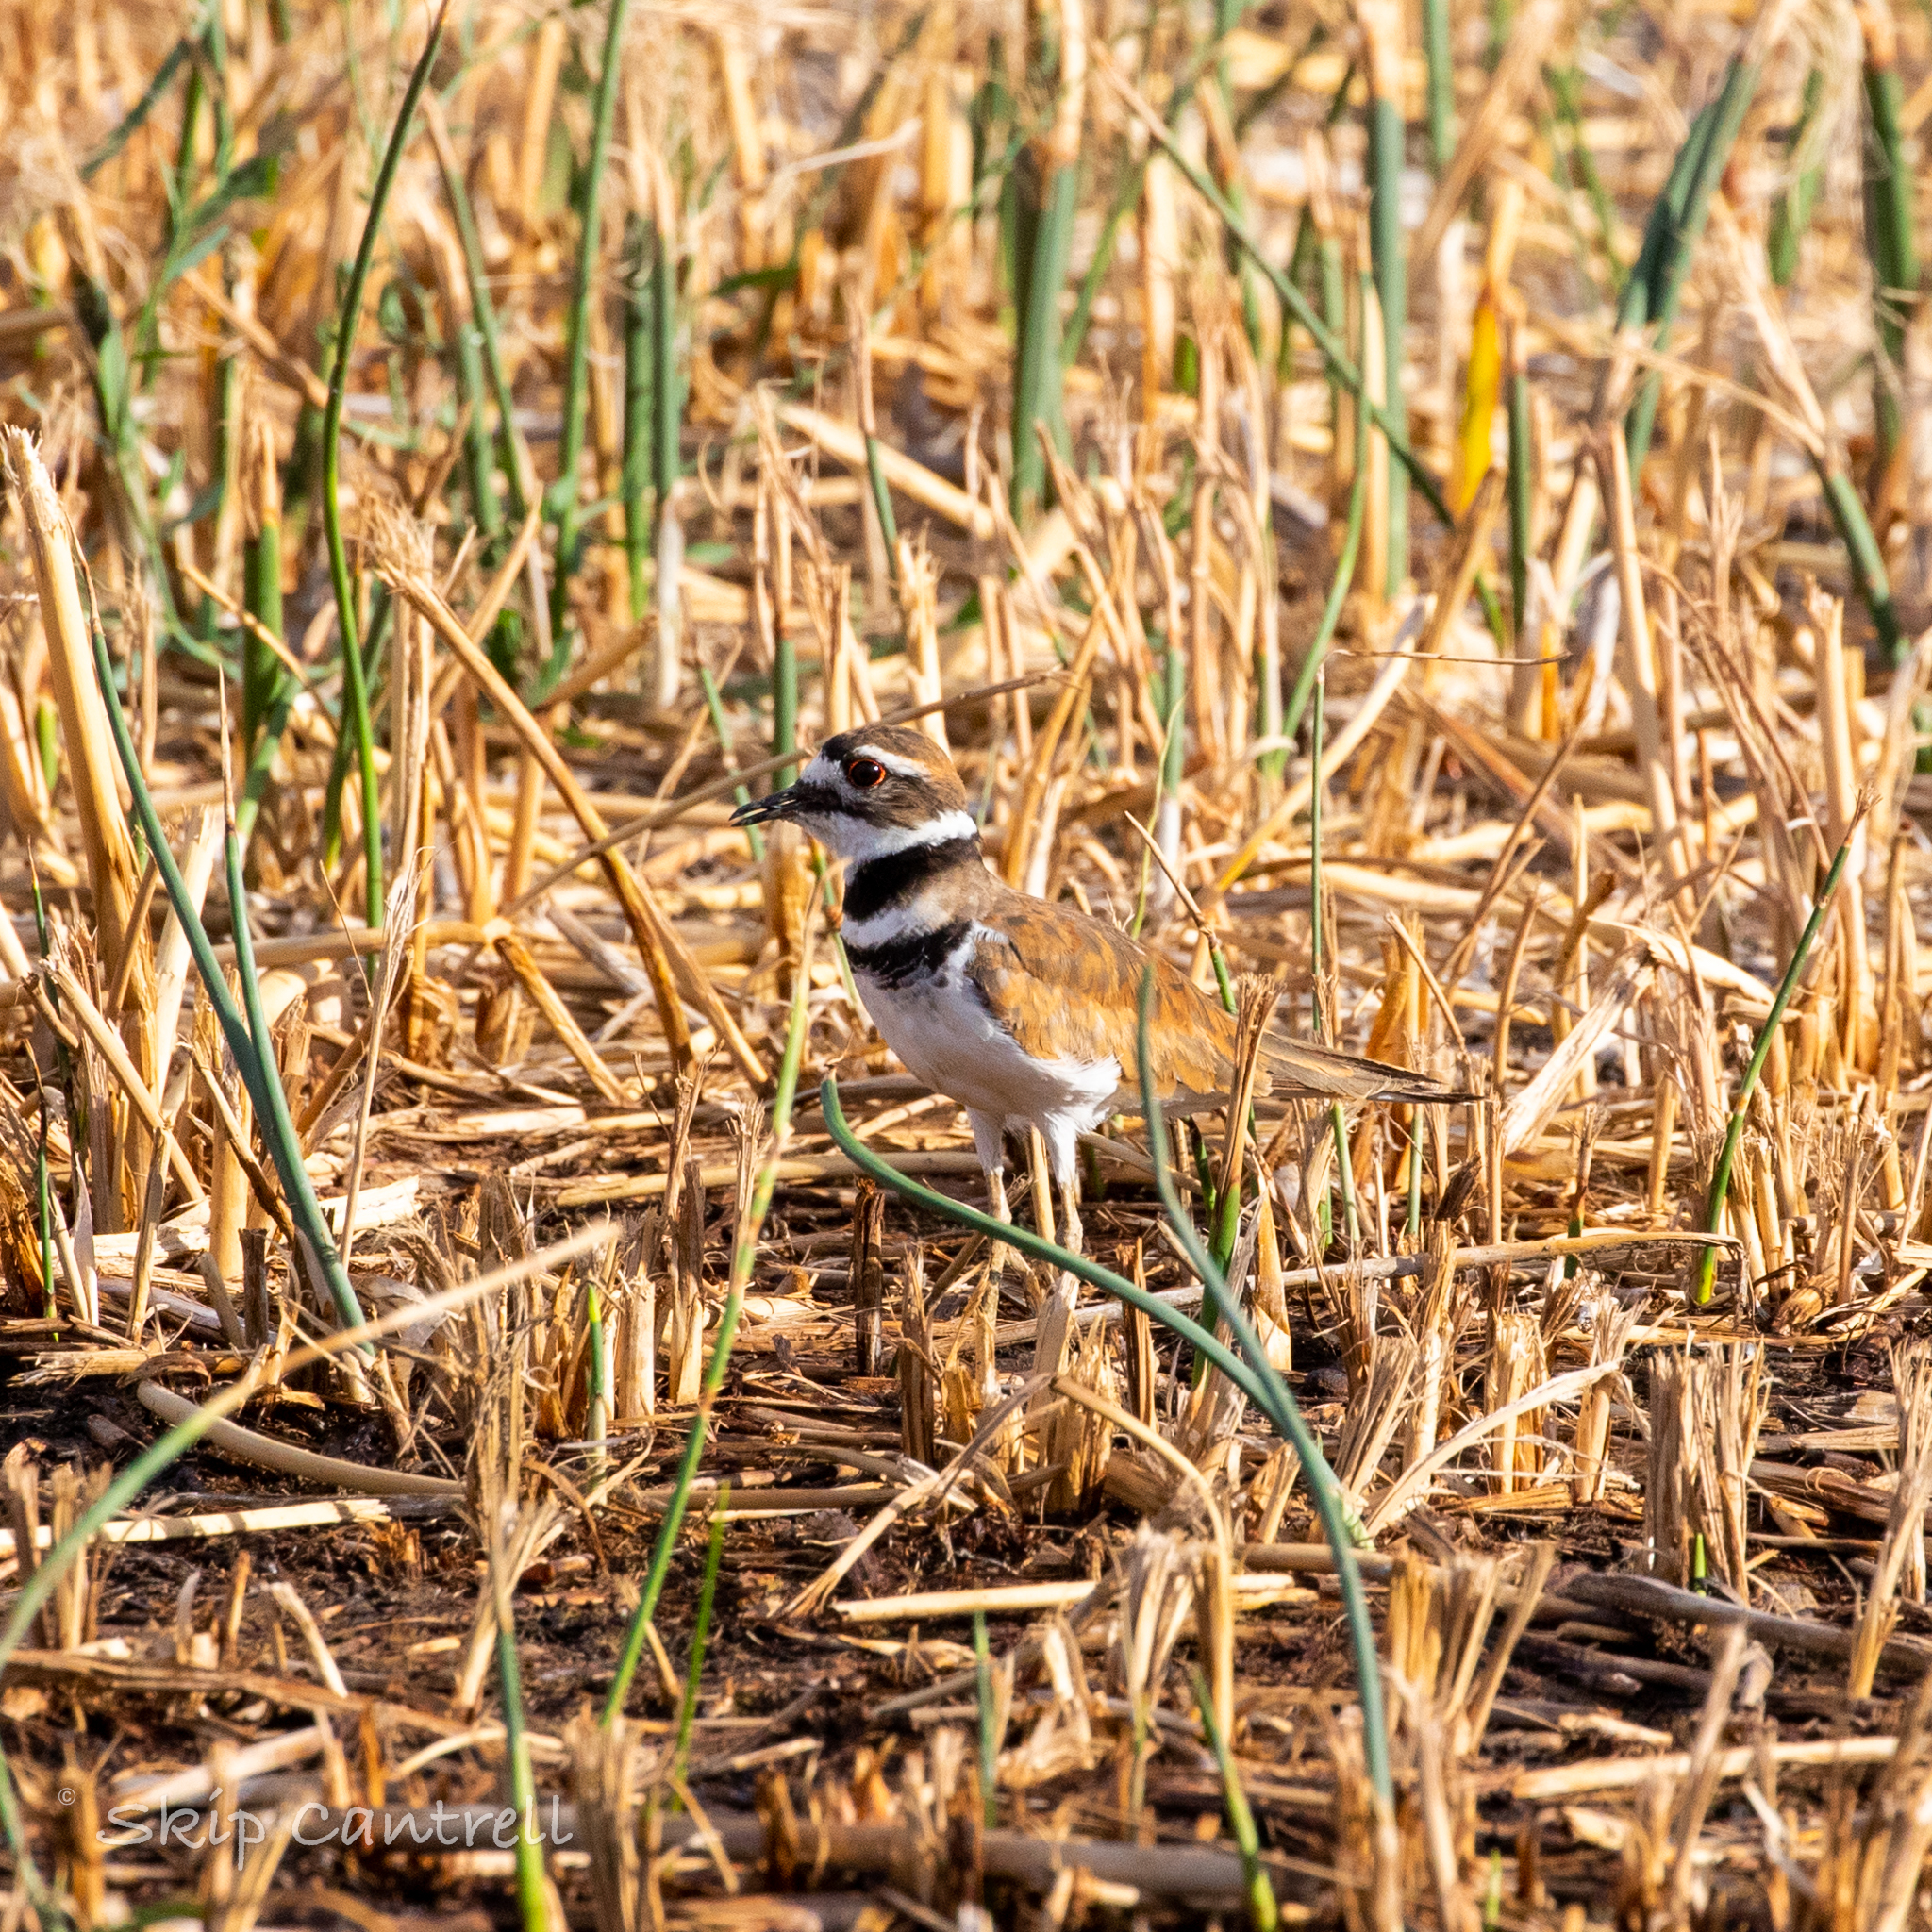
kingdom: Animalia
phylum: Chordata
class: Aves
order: Charadriiformes
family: Charadriidae
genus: Charadrius
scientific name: Charadrius vociferus
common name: Killdeer
